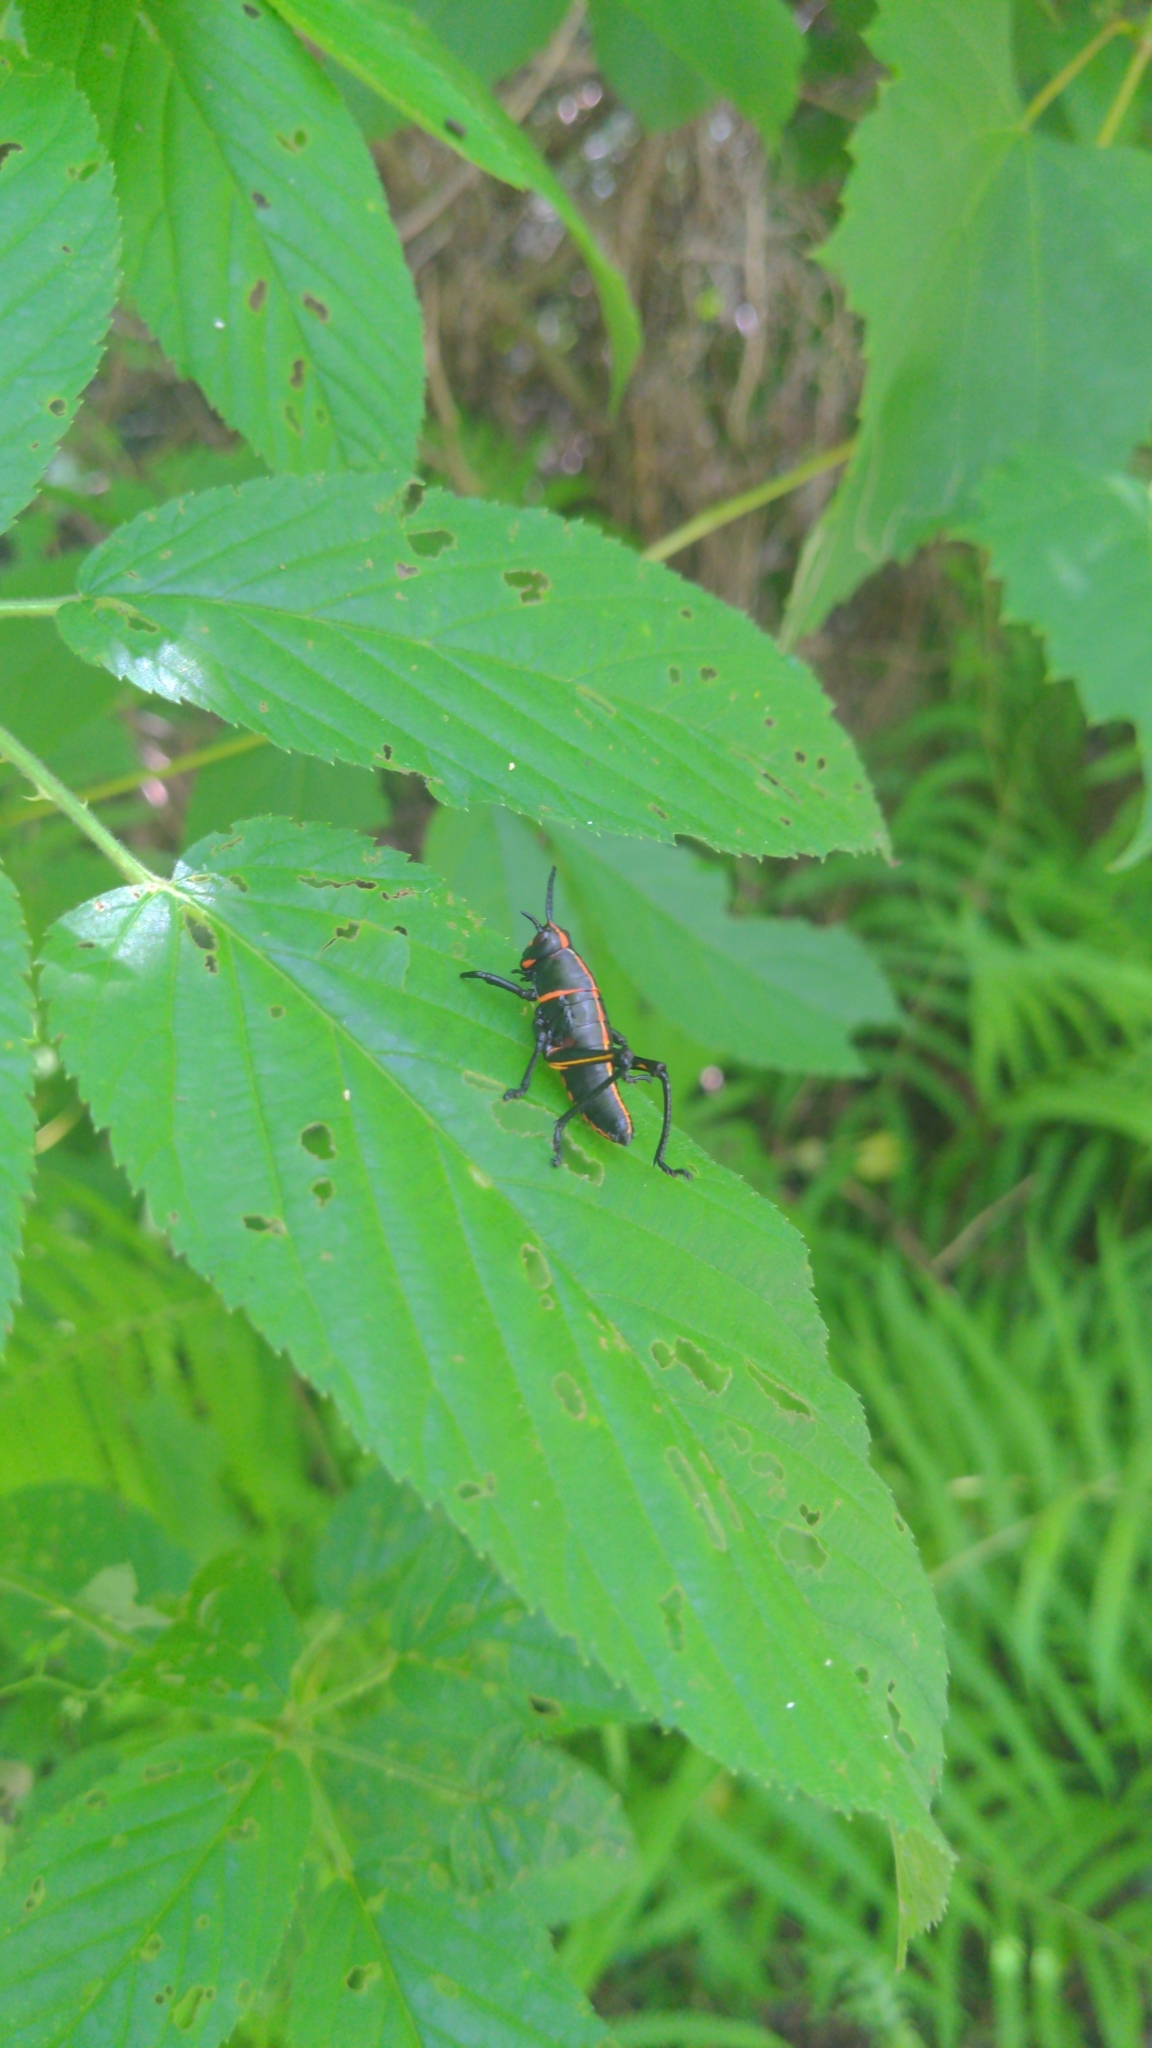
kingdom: Animalia
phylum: Arthropoda
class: Insecta
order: Orthoptera
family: Romaleidae
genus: Romalea
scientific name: Romalea microptera
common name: Eastern lubber grasshopper
